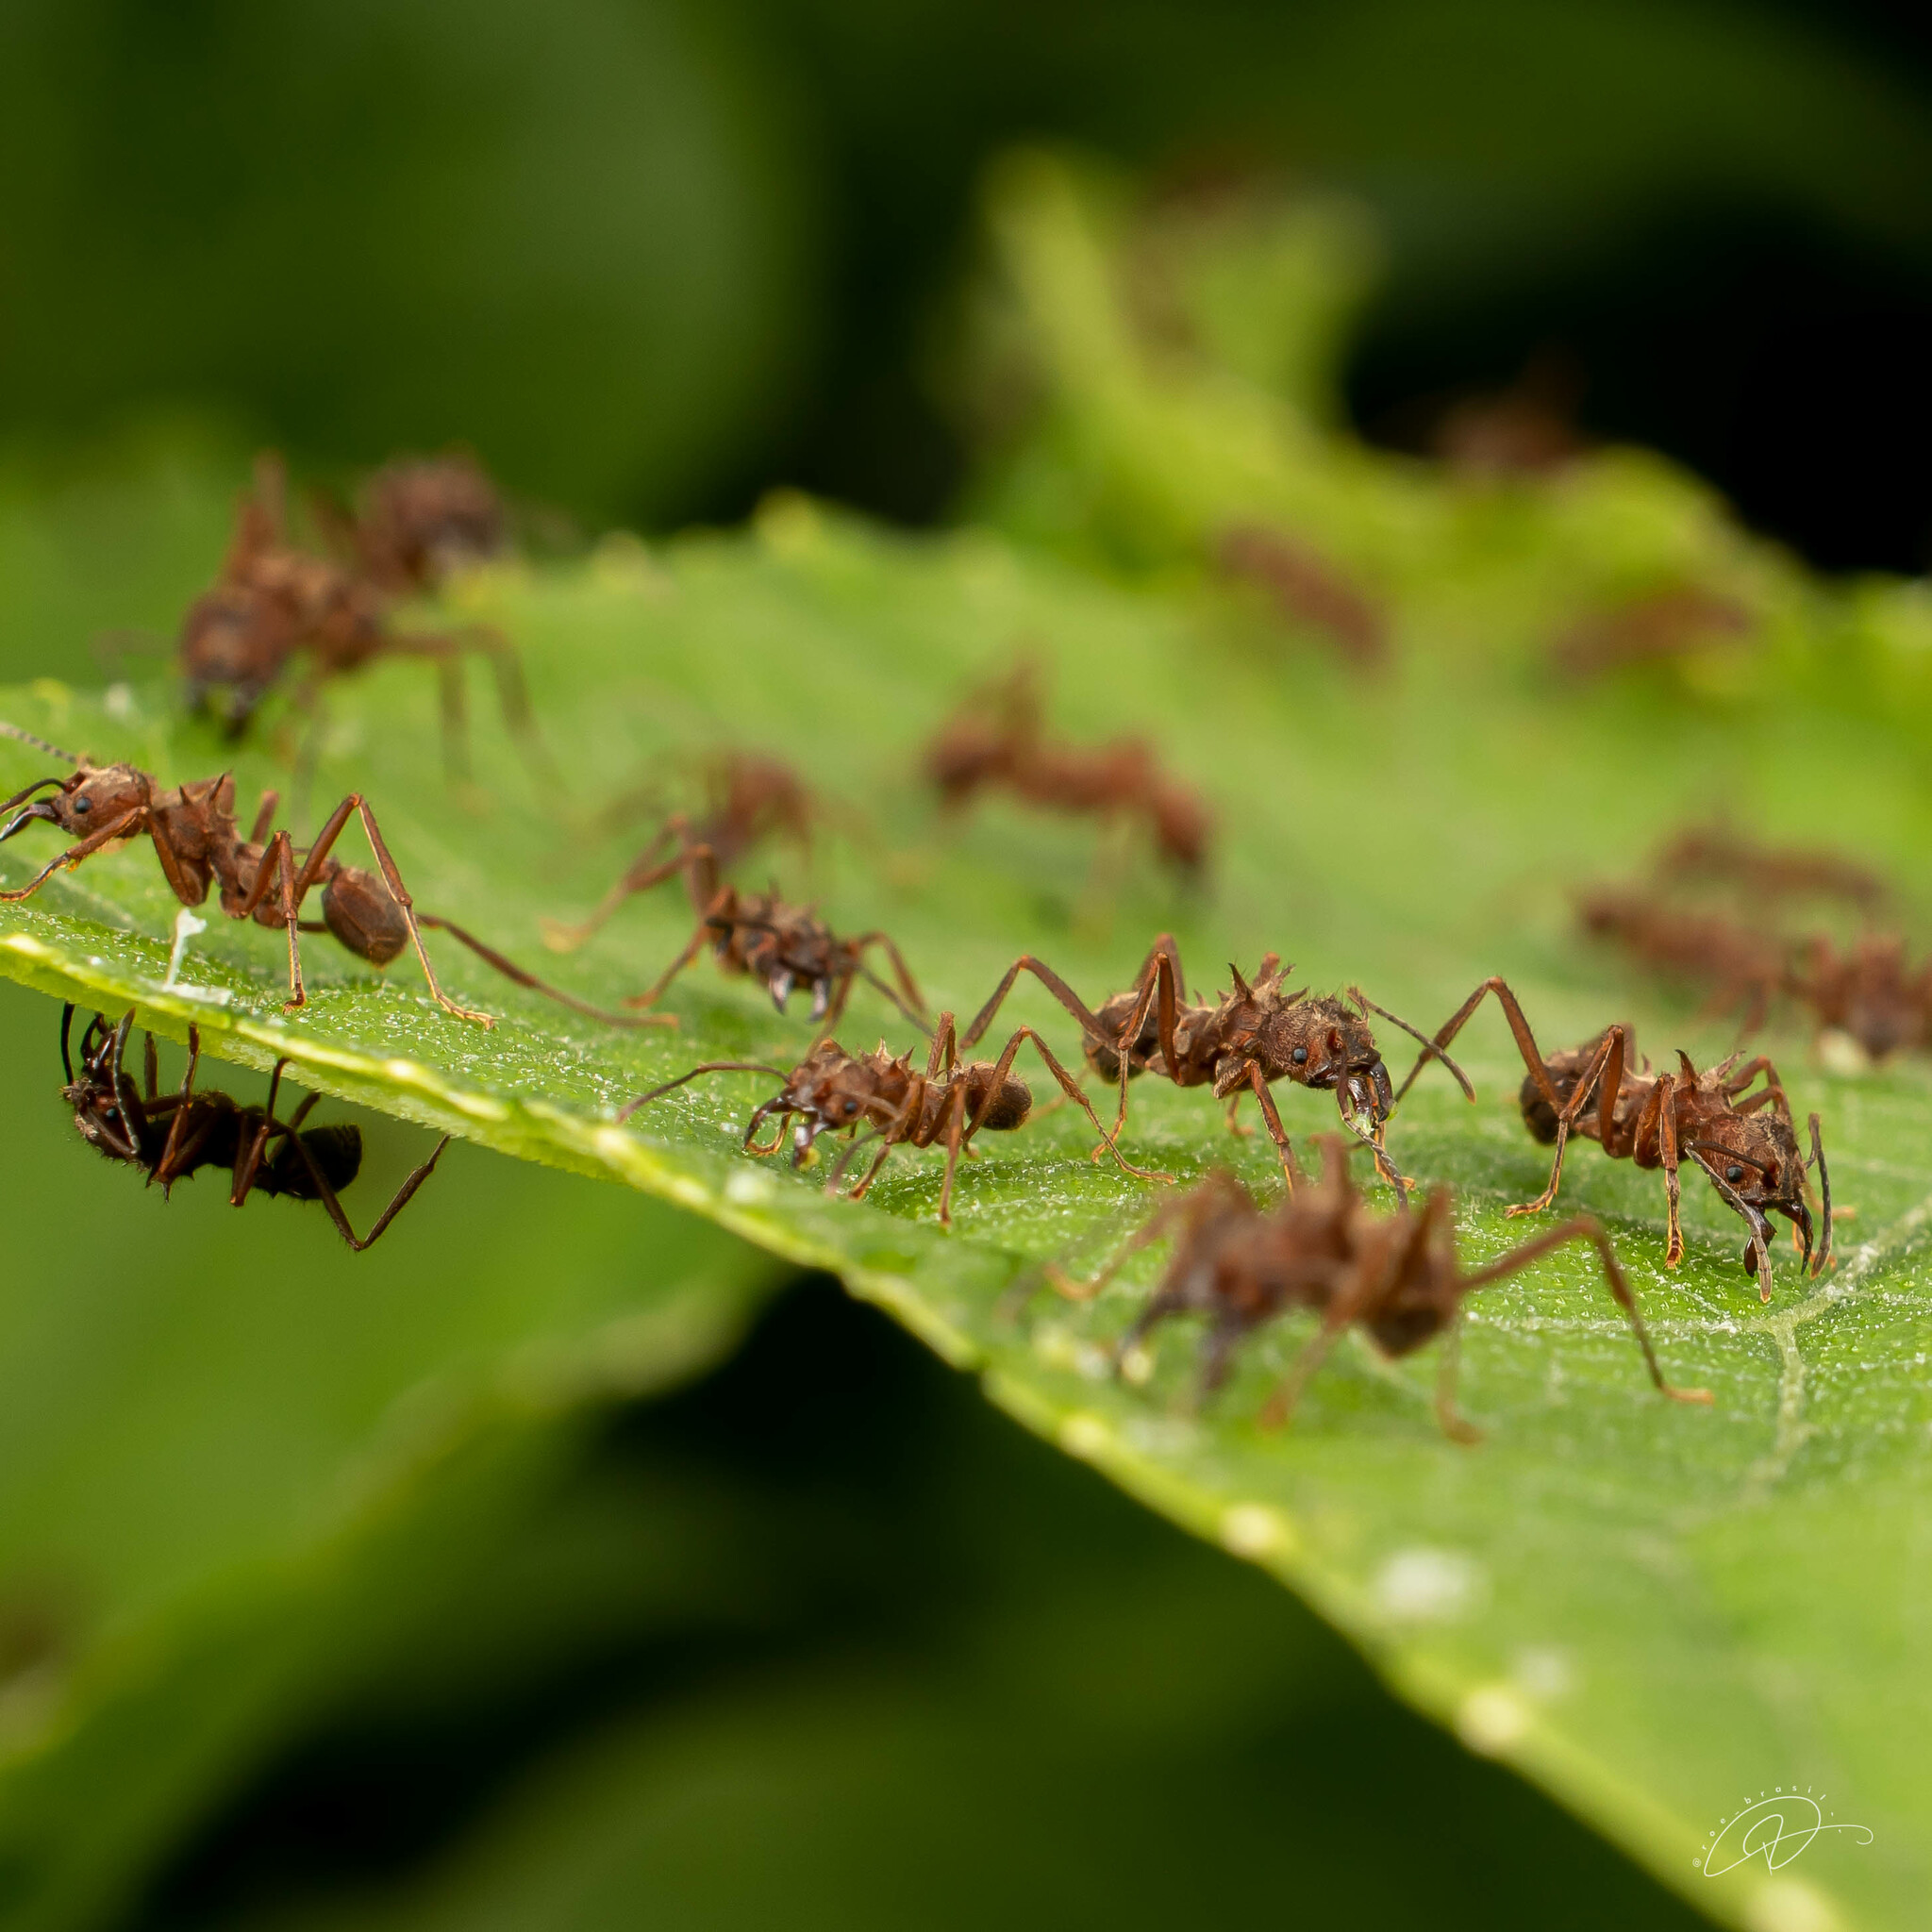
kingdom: Animalia
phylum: Arthropoda
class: Insecta
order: Hymenoptera
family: Formicidae
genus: Acromyrmex
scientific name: Acromyrmex disciger
